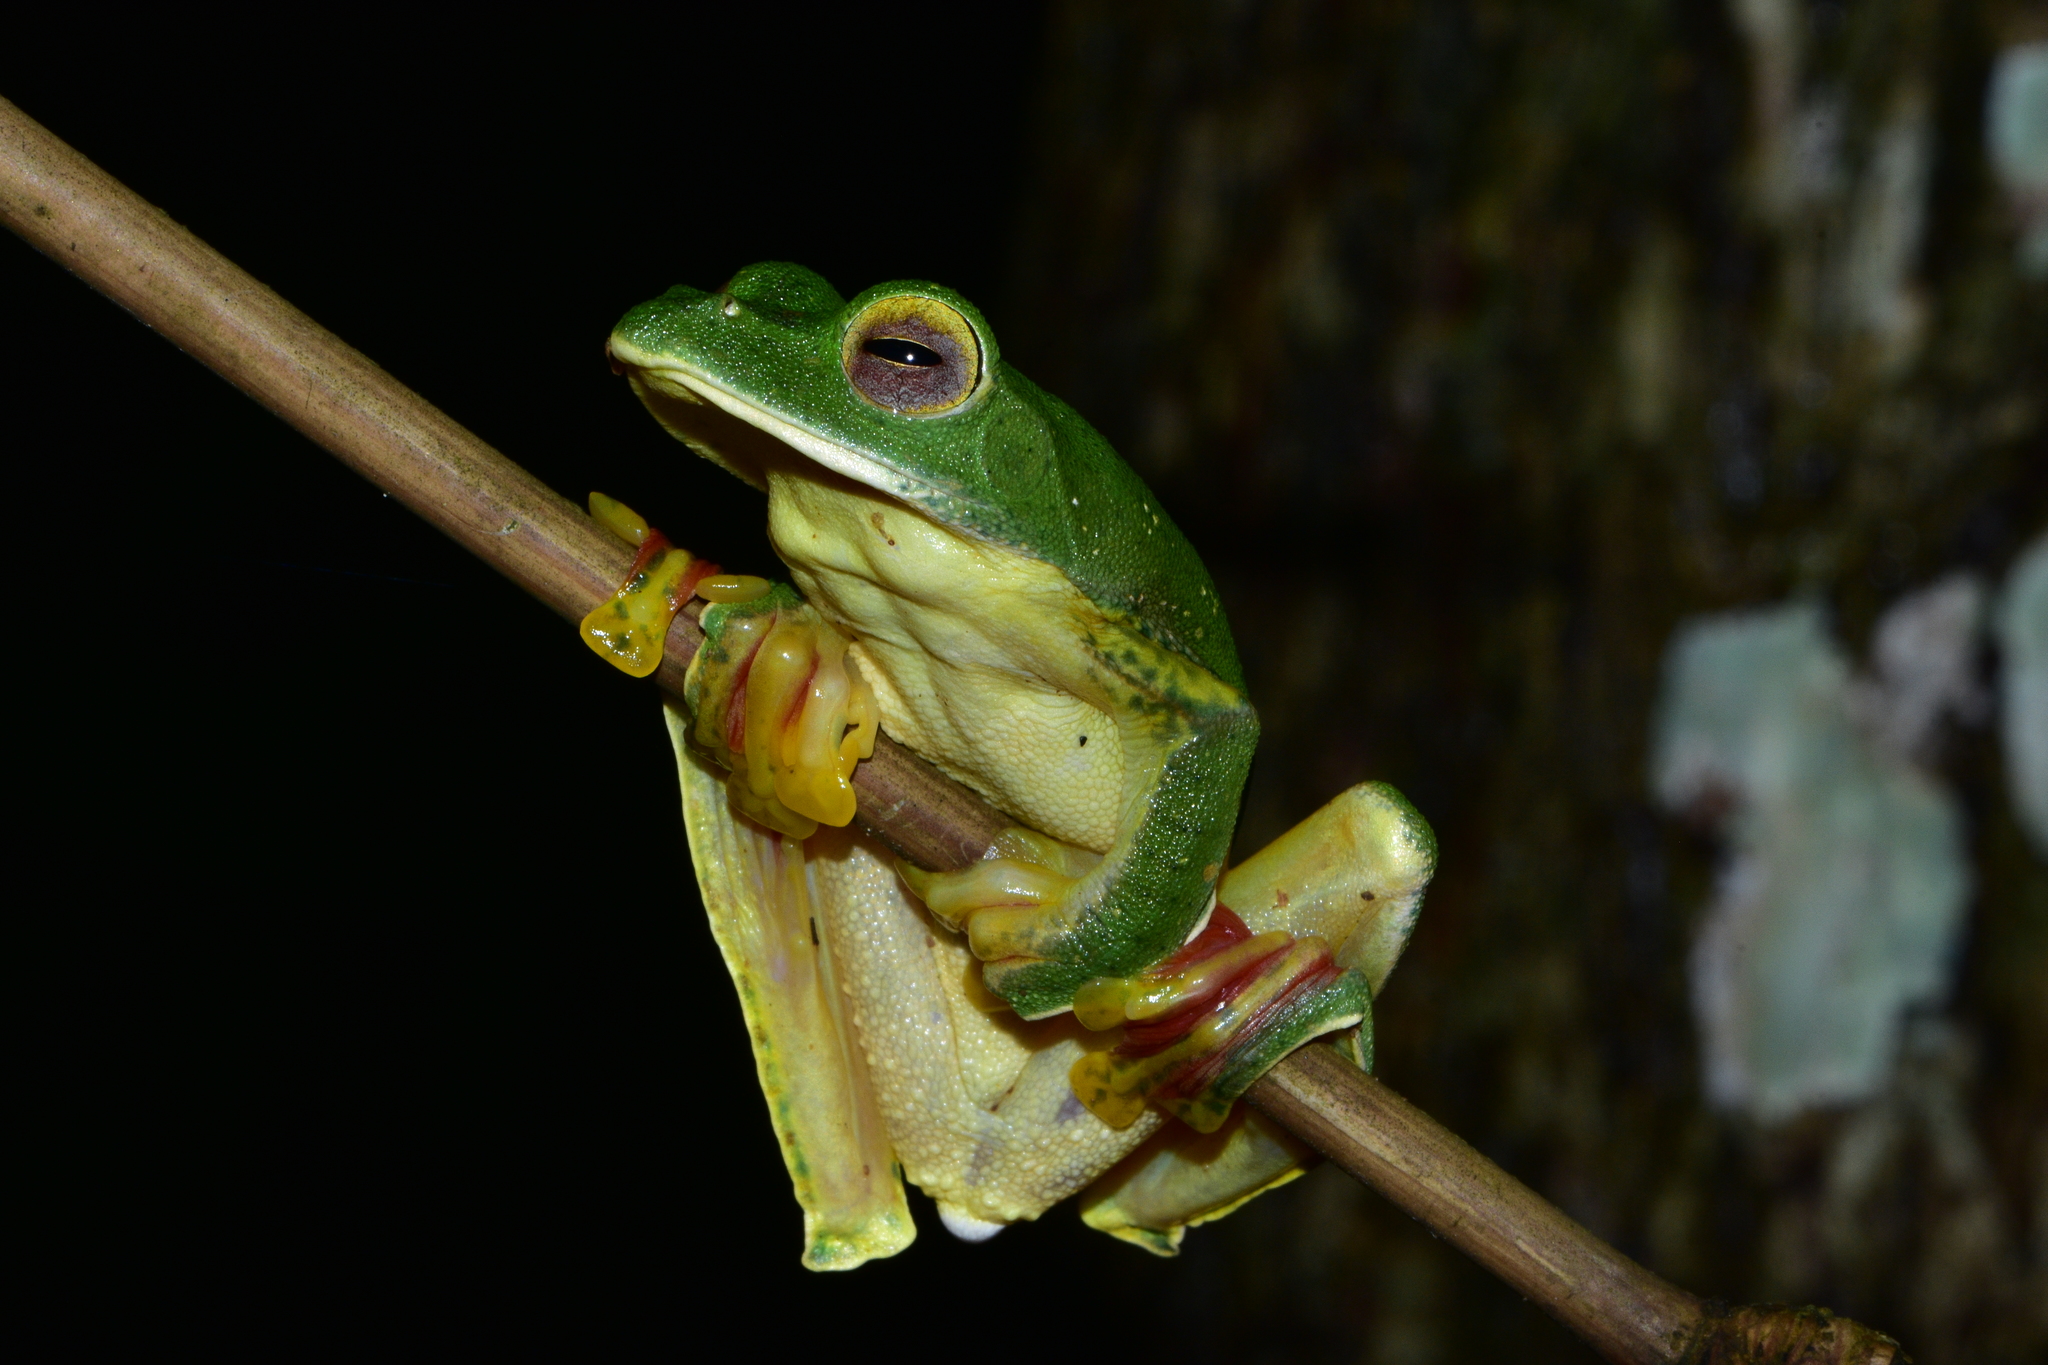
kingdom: Animalia
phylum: Chordata
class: Amphibia
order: Anura
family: Rhacophoridae
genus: Rhacophorus
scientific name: Rhacophorus malabaricus
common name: Malabar gliding frog
